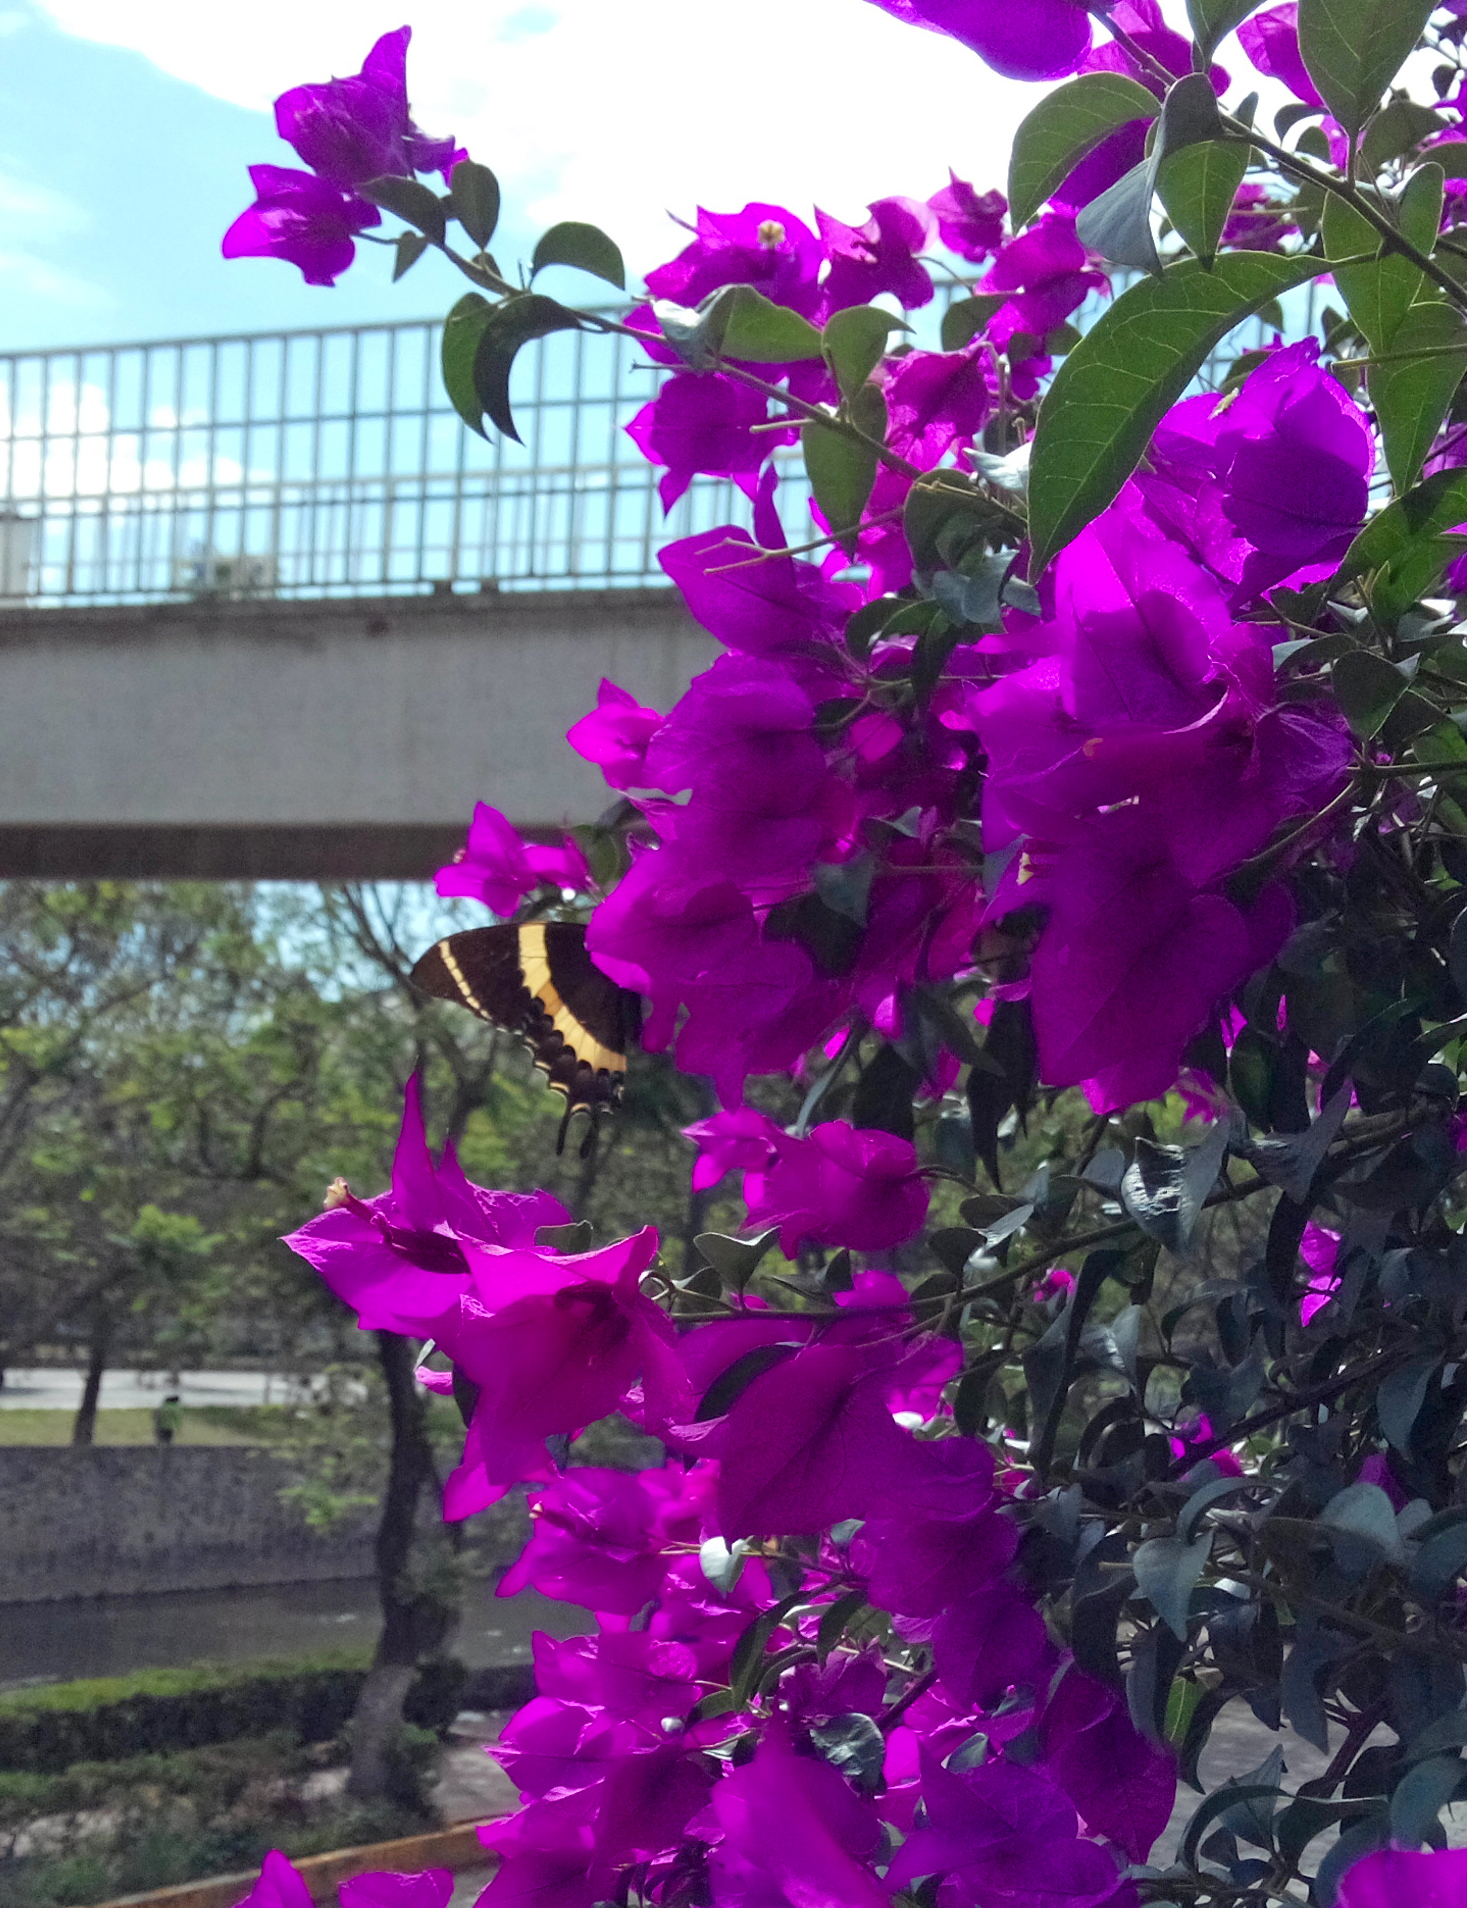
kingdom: Animalia
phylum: Arthropoda
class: Insecta
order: Lepidoptera
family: Papilionidae
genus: Papilio
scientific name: Papilio garamas
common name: Magnificent swallowtail
